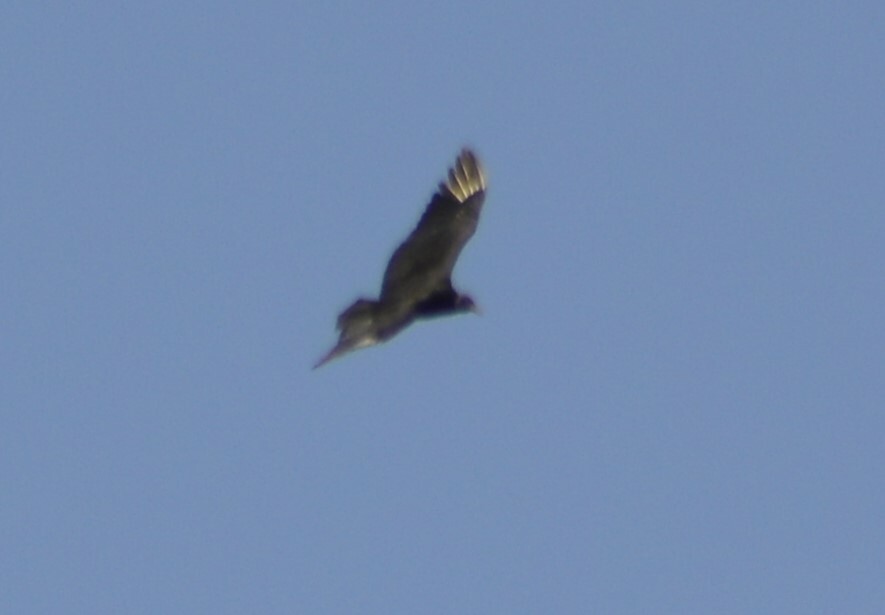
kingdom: Animalia
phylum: Chordata
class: Aves
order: Accipitriformes
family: Cathartidae
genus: Coragyps
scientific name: Coragyps atratus
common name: Black vulture
